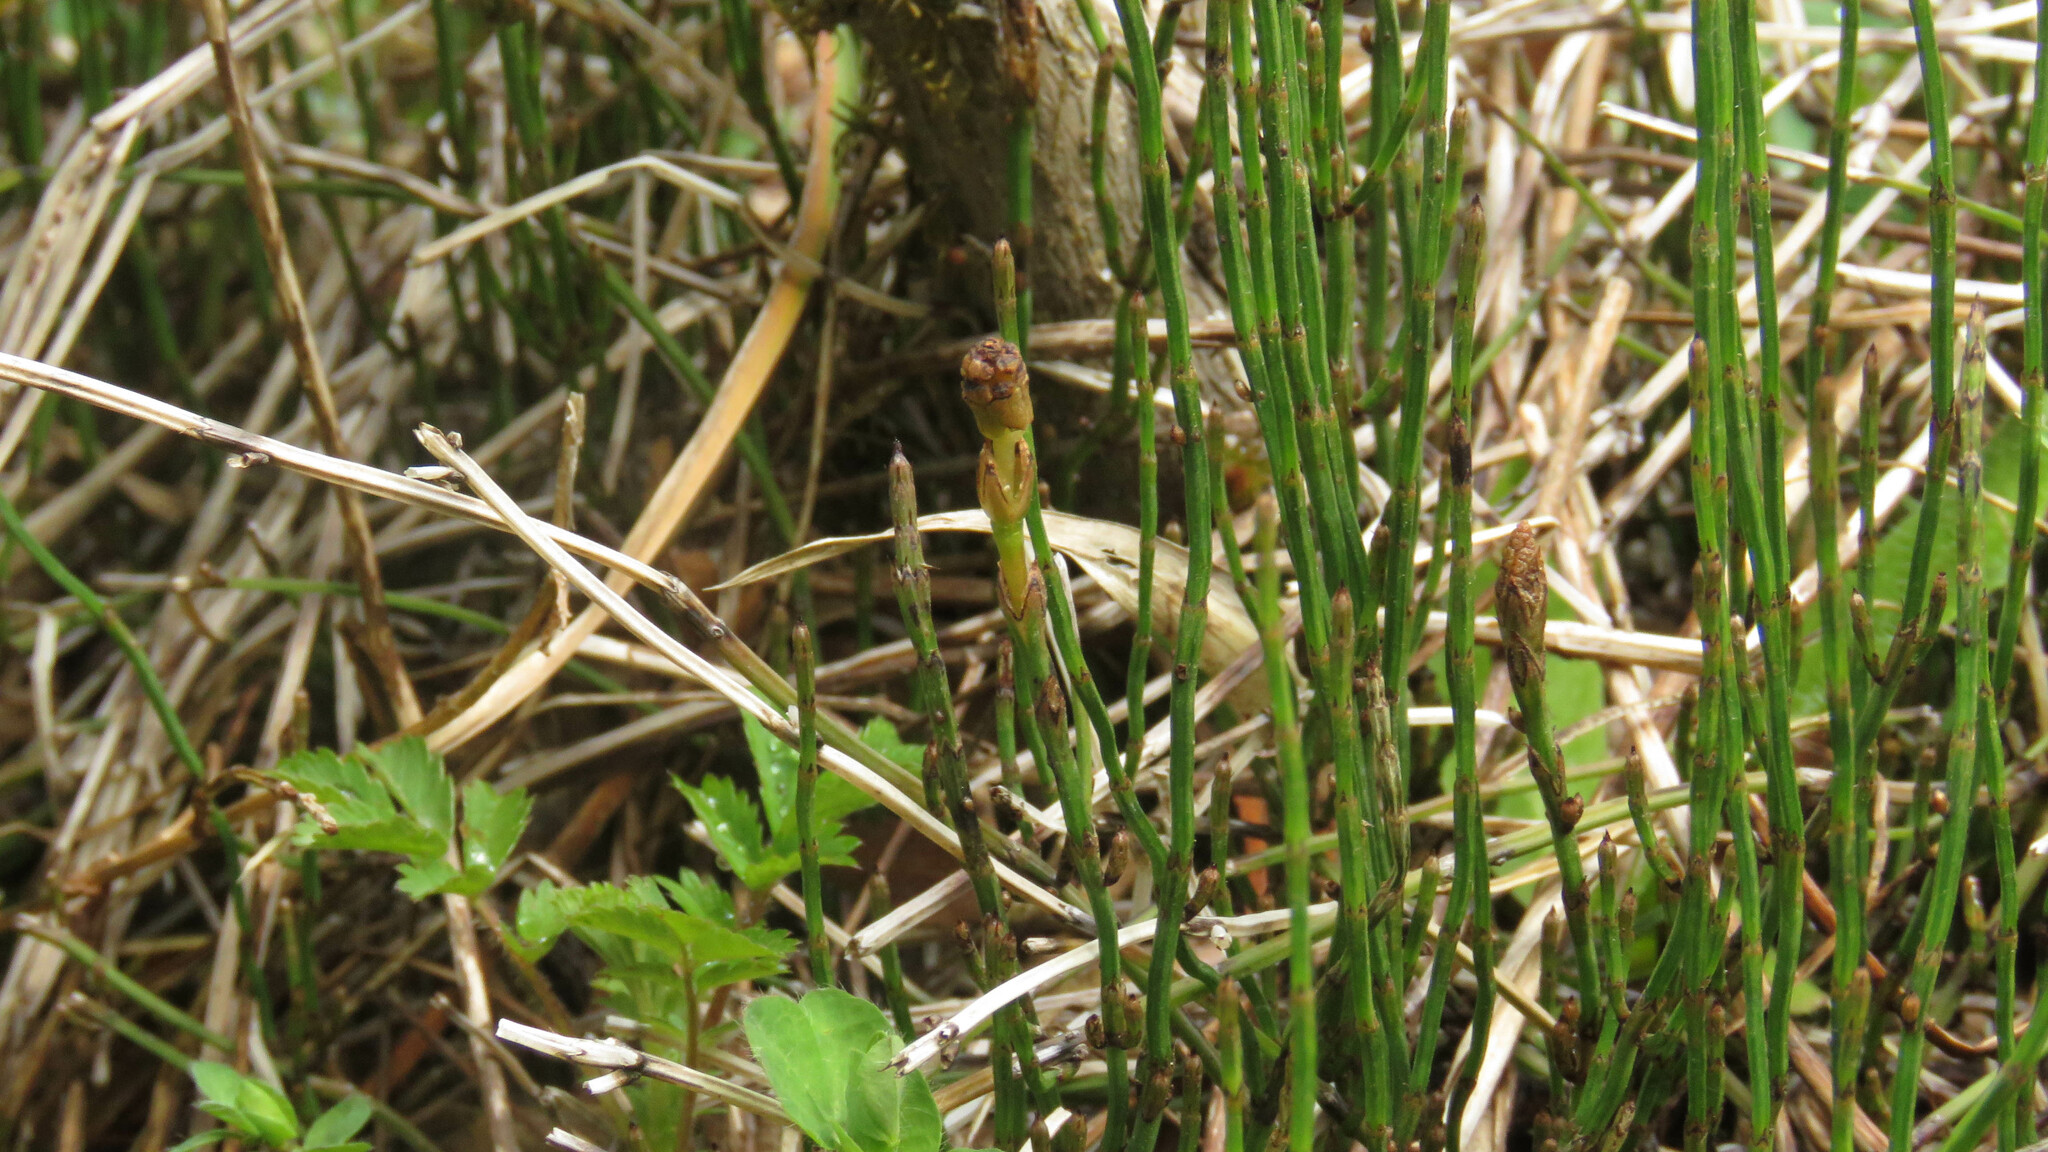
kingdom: Plantae
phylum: Tracheophyta
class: Polypodiopsida
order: Equisetales
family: Equisetaceae
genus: Equisetum
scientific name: Equisetum bogotense
